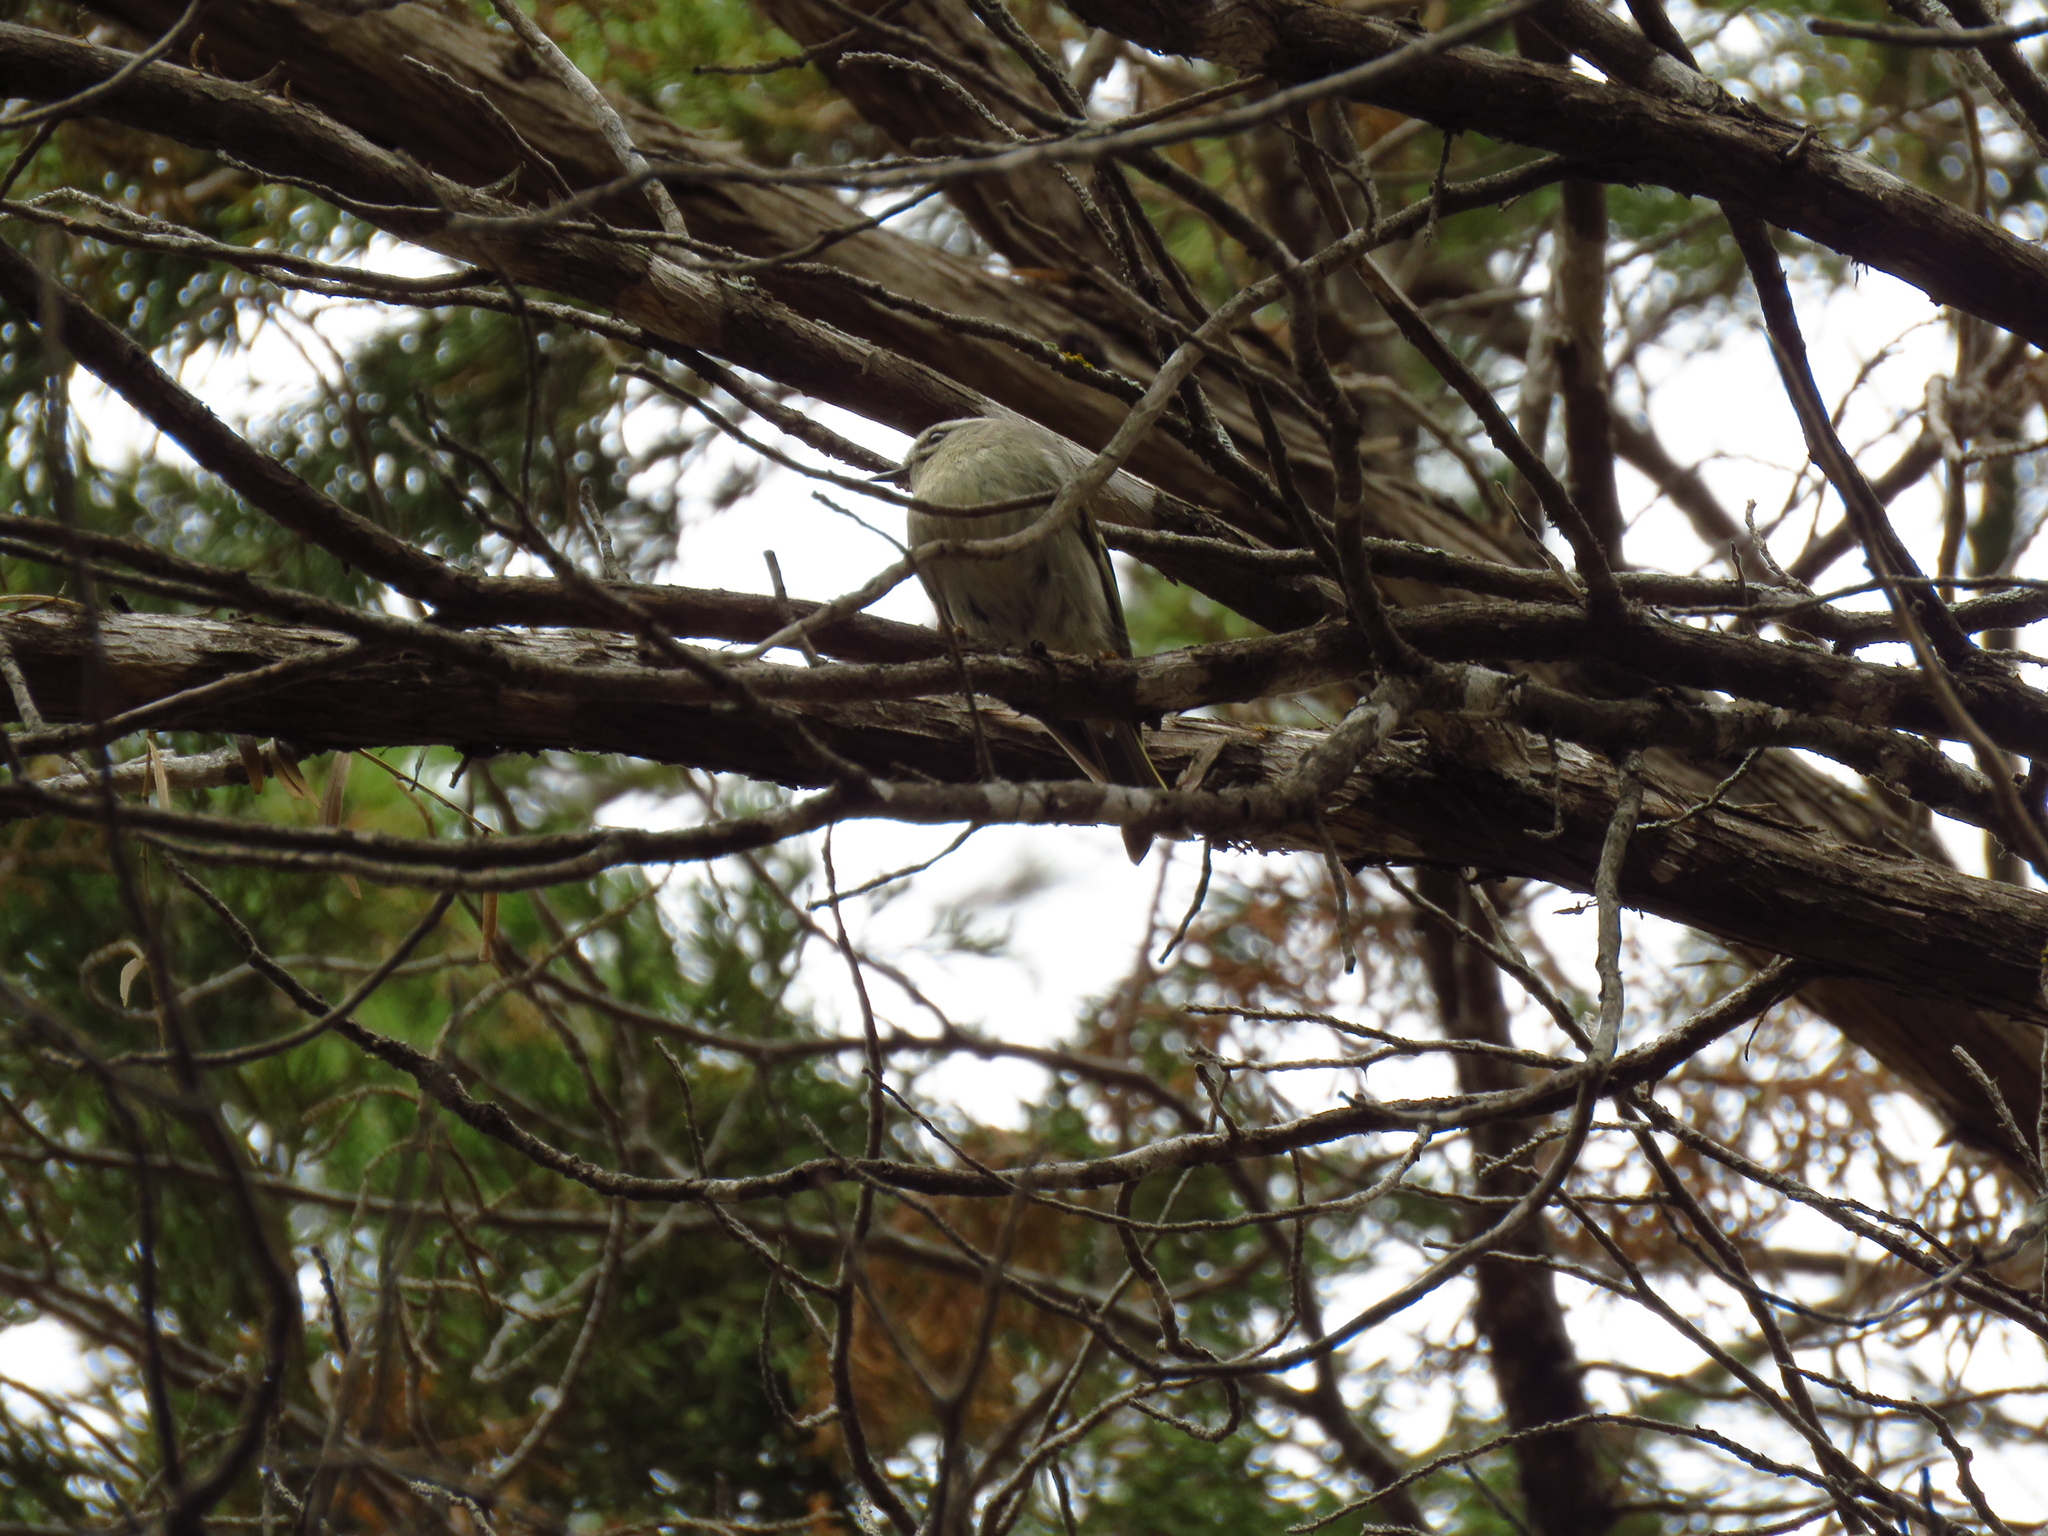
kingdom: Animalia
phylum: Chordata
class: Aves
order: Passeriformes
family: Regulidae
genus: Regulus
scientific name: Regulus satrapa
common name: Golden-crowned kinglet
